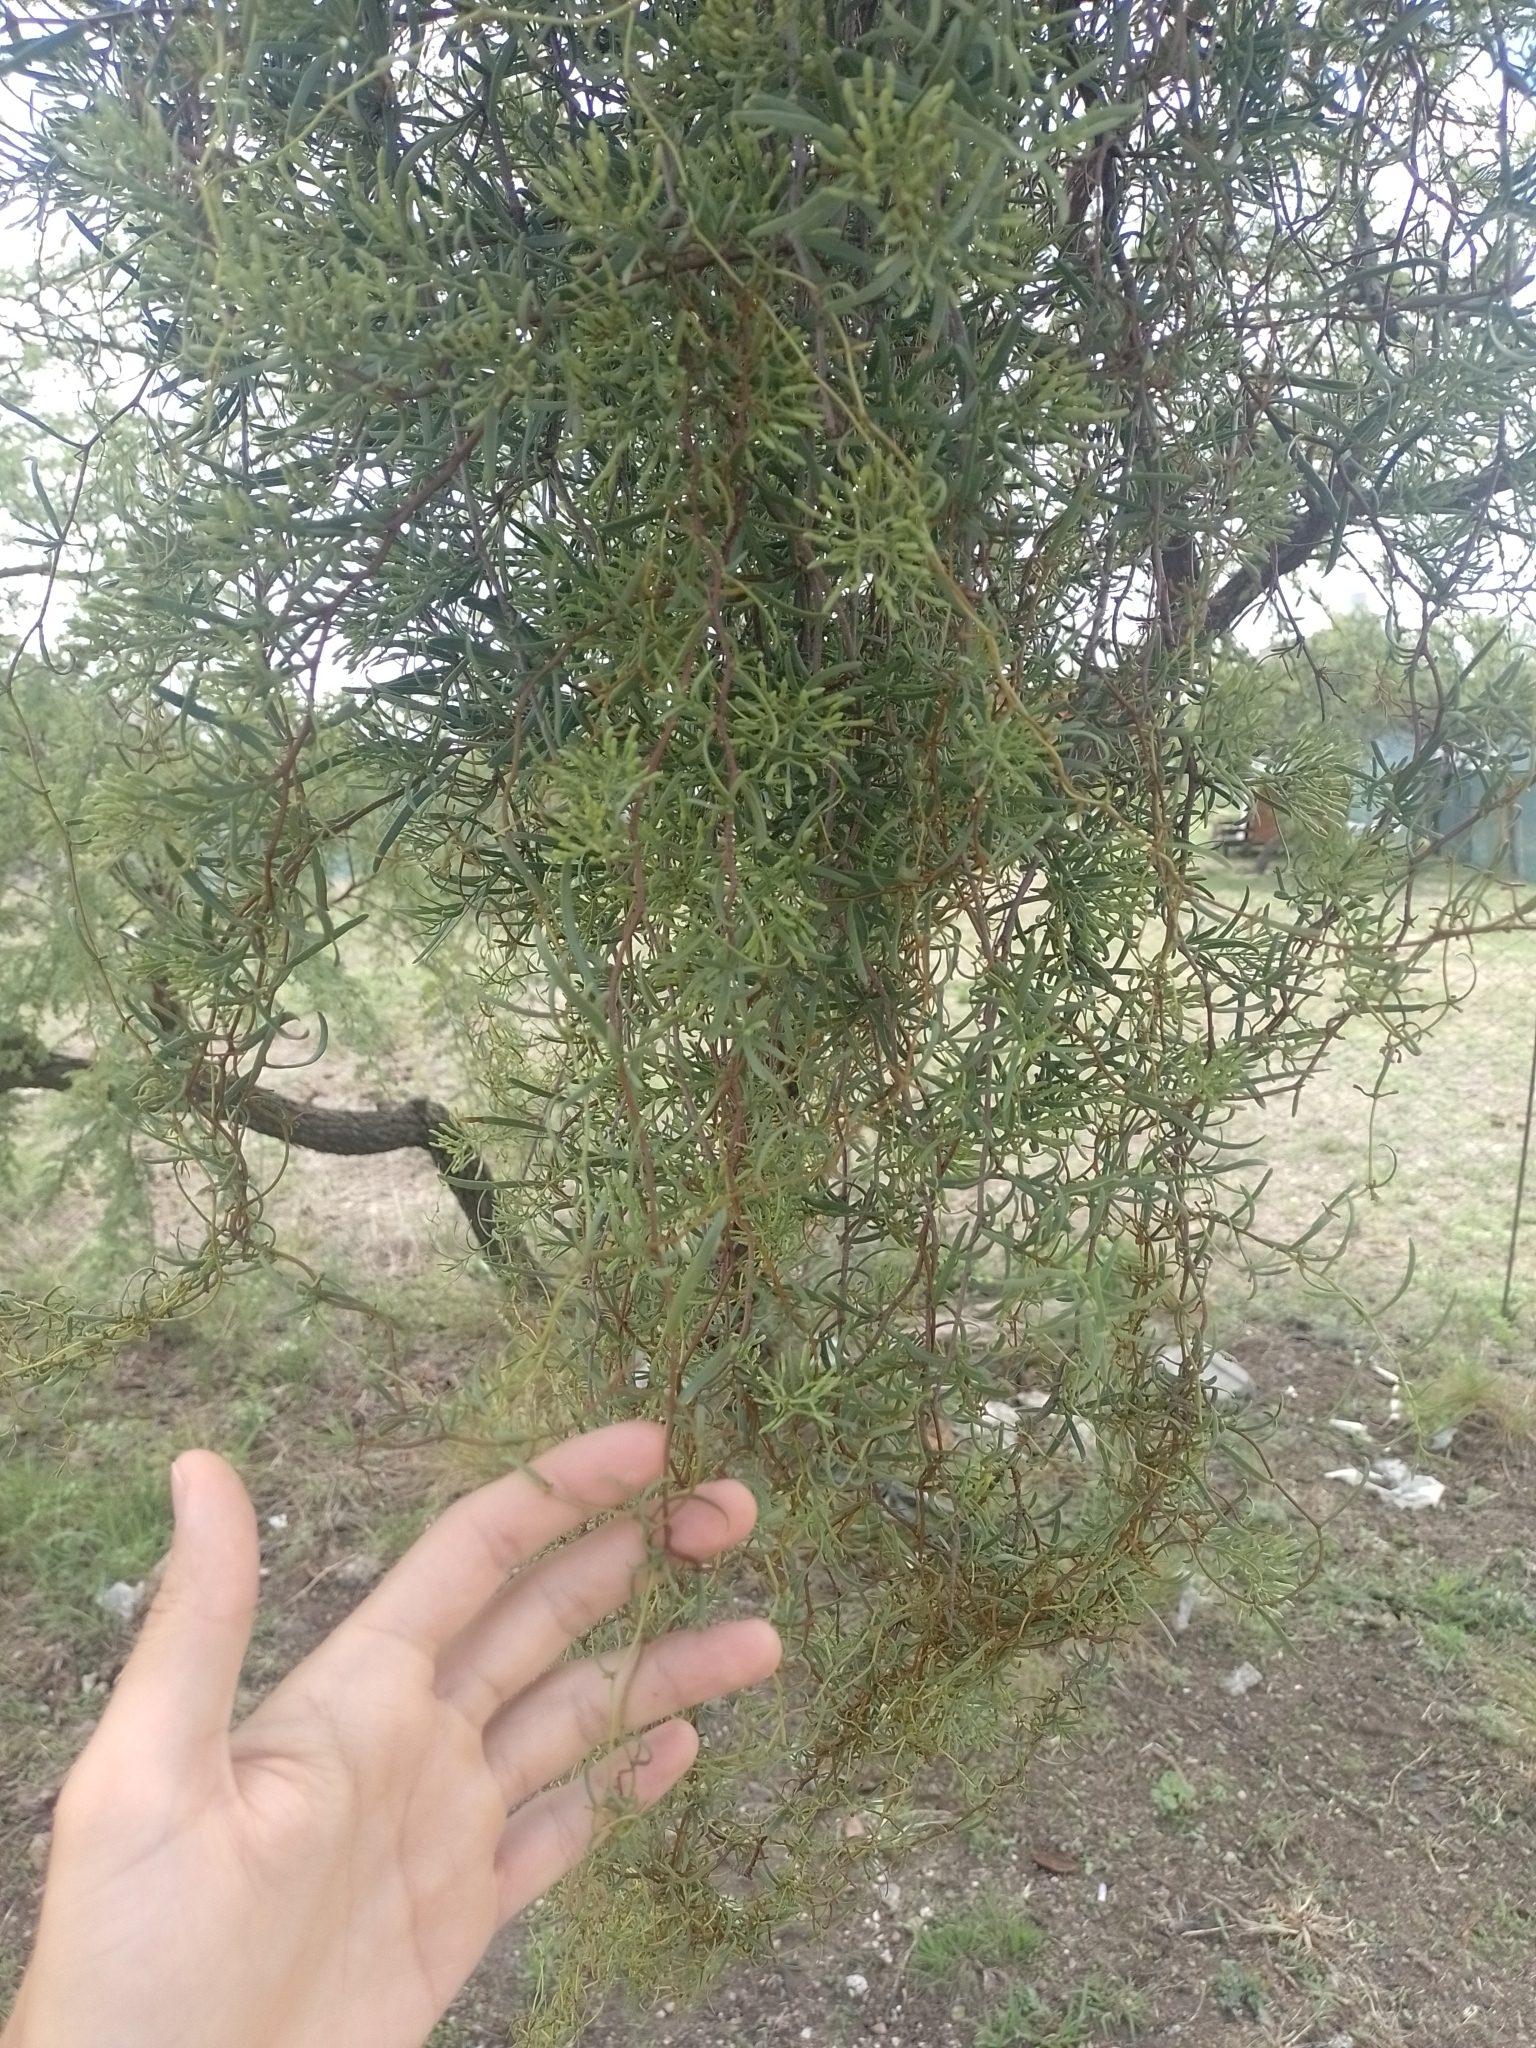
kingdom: Plantae
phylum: Tracheophyta
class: Magnoliopsida
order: Santalales
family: Loranthaceae
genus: Tripodanthus
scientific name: Tripodanthus flagellaris
